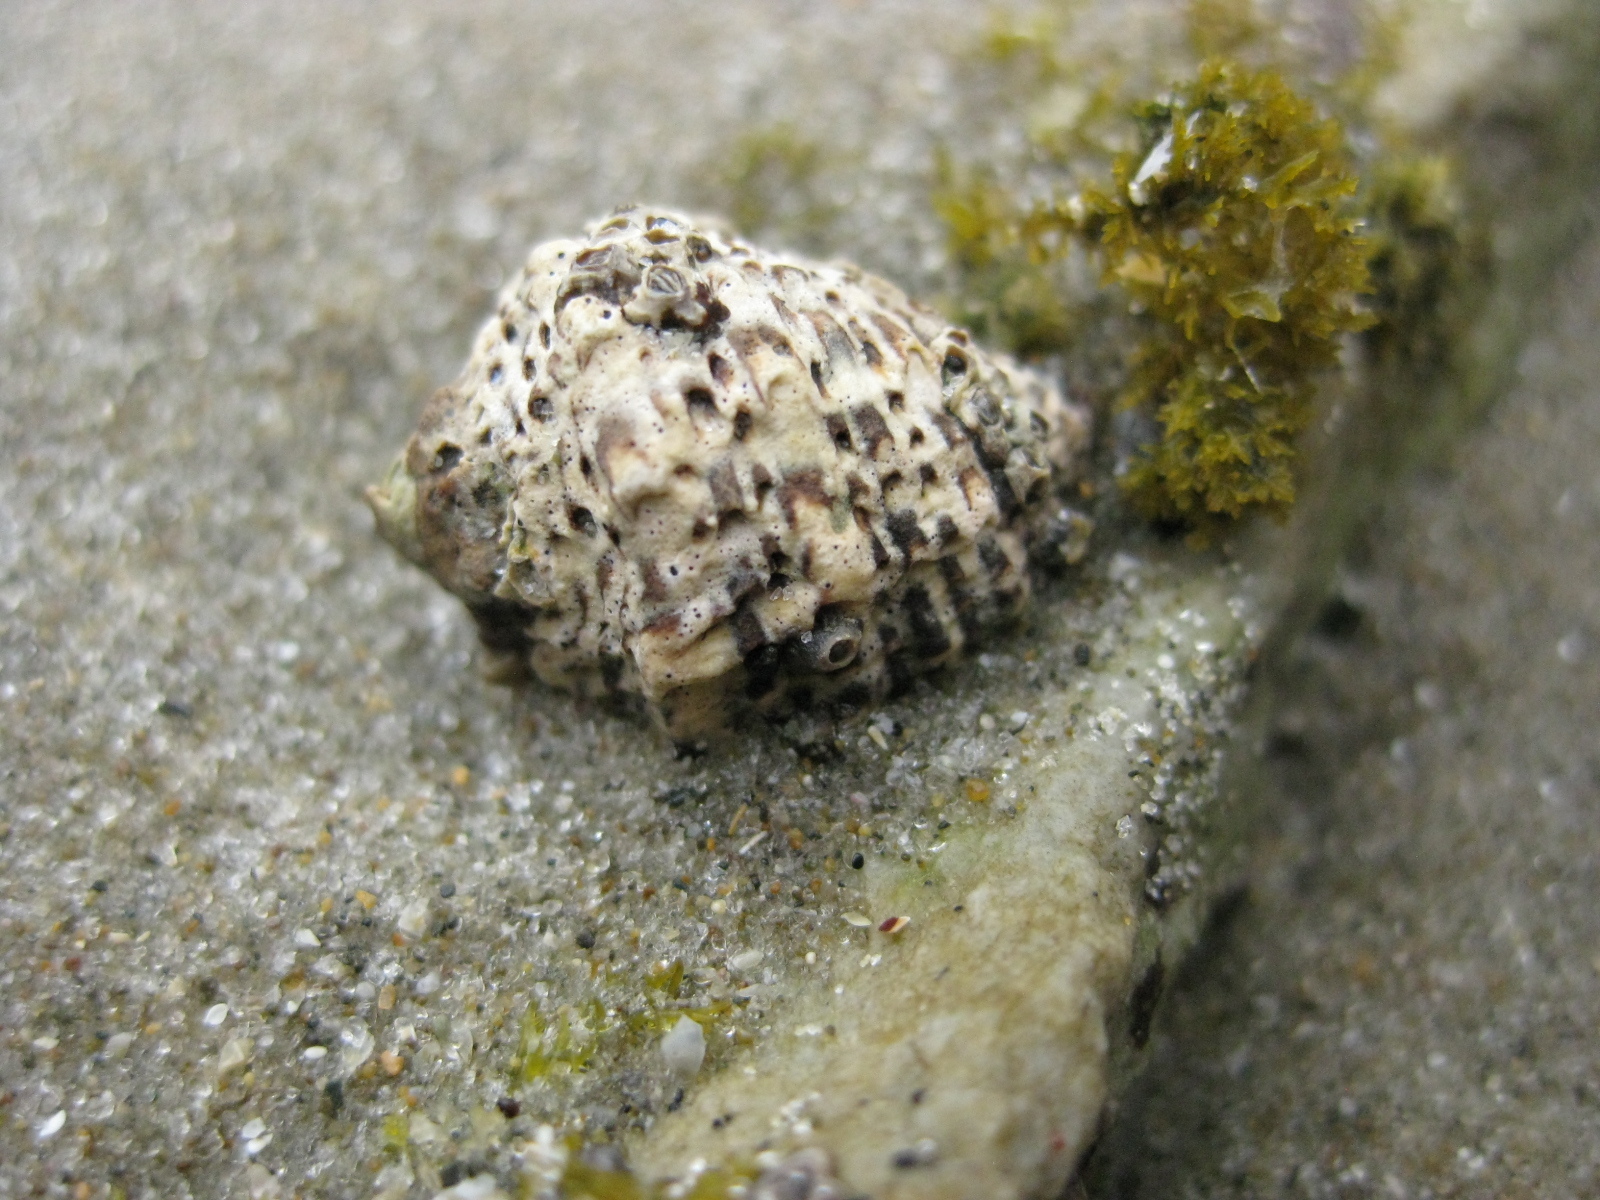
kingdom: Animalia
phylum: Mollusca
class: Gastropoda
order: Neogastropoda
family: Muricidae
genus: Haustrum
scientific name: Haustrum scobina
